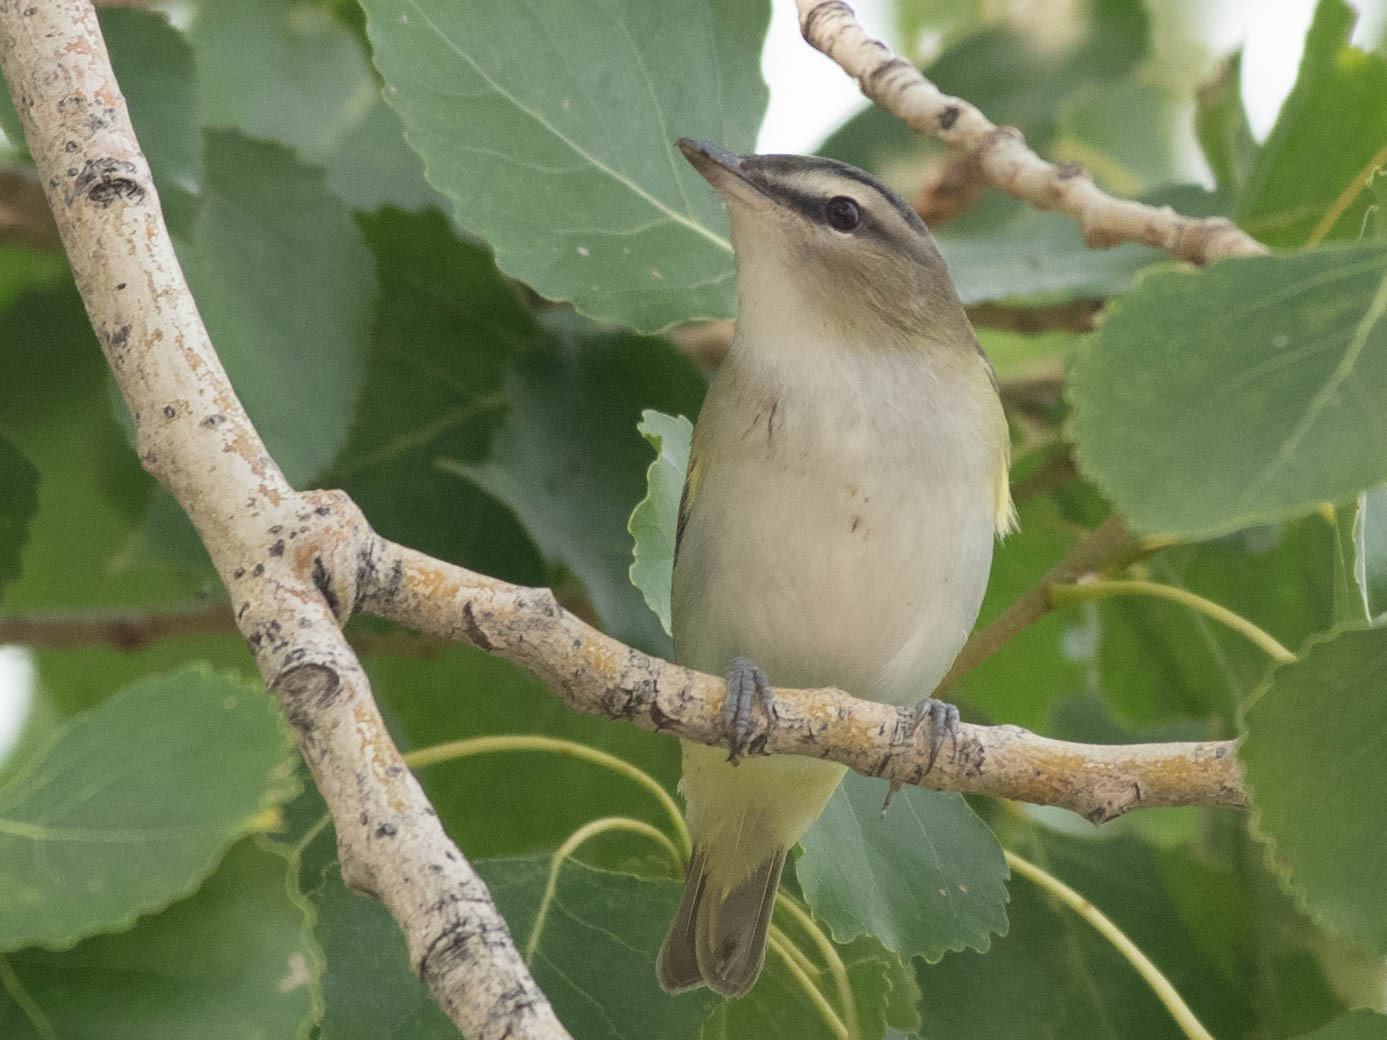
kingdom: Animalia
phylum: Chordata
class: Aves
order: Passeriformes
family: Vireonidae
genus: Vireo
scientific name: Vireo olivaceus
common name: Red-eyed vireo
